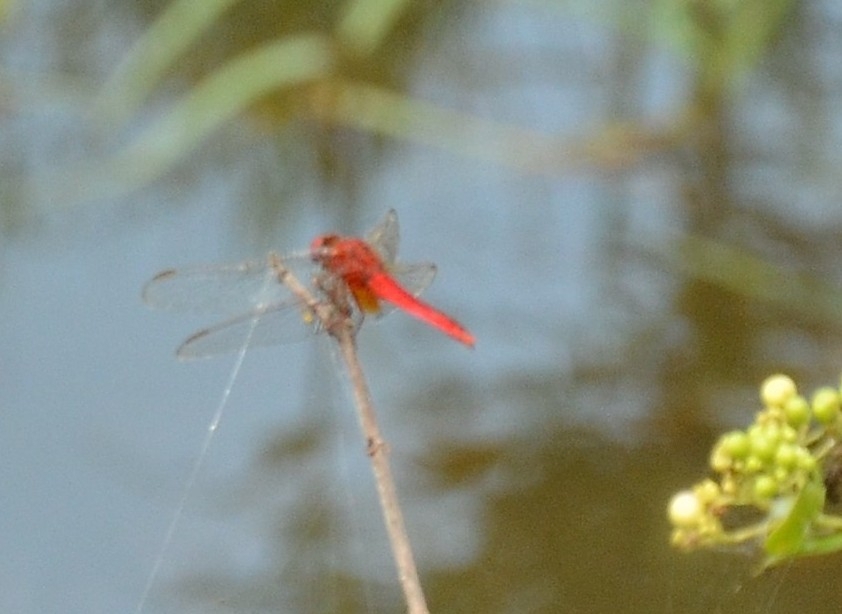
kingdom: Animalia
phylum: Arthropoda
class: Insecta
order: Odonata
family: Libellulidae
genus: Crocothemis
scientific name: Crocothemis servilia
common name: Scarlet skimmer
